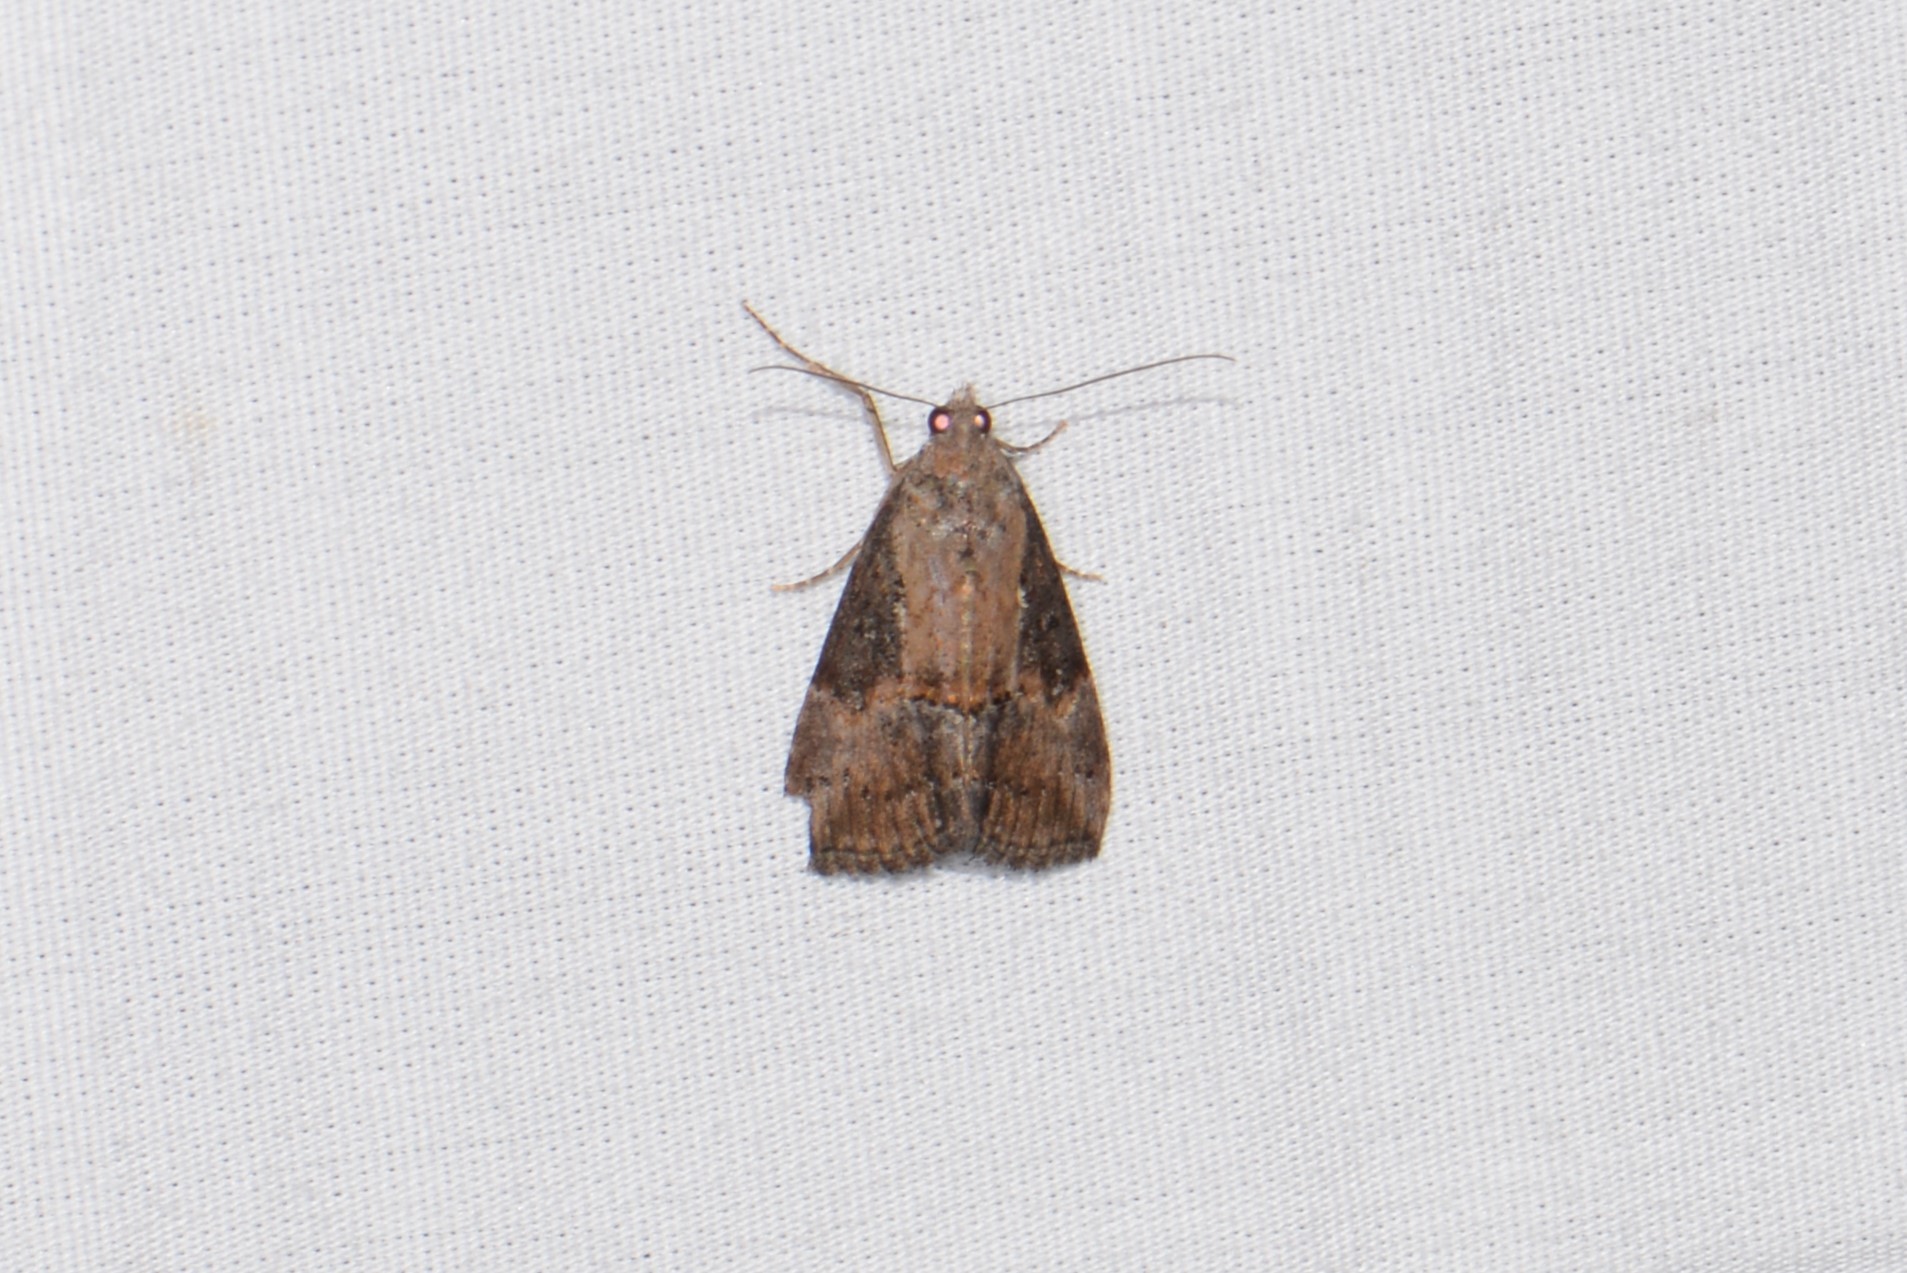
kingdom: Animalia
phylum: Arthropoda
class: Insecta
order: Lepidoptera
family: Erebidae
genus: Hypena
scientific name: Hypena scabra
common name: Green cloverworm
